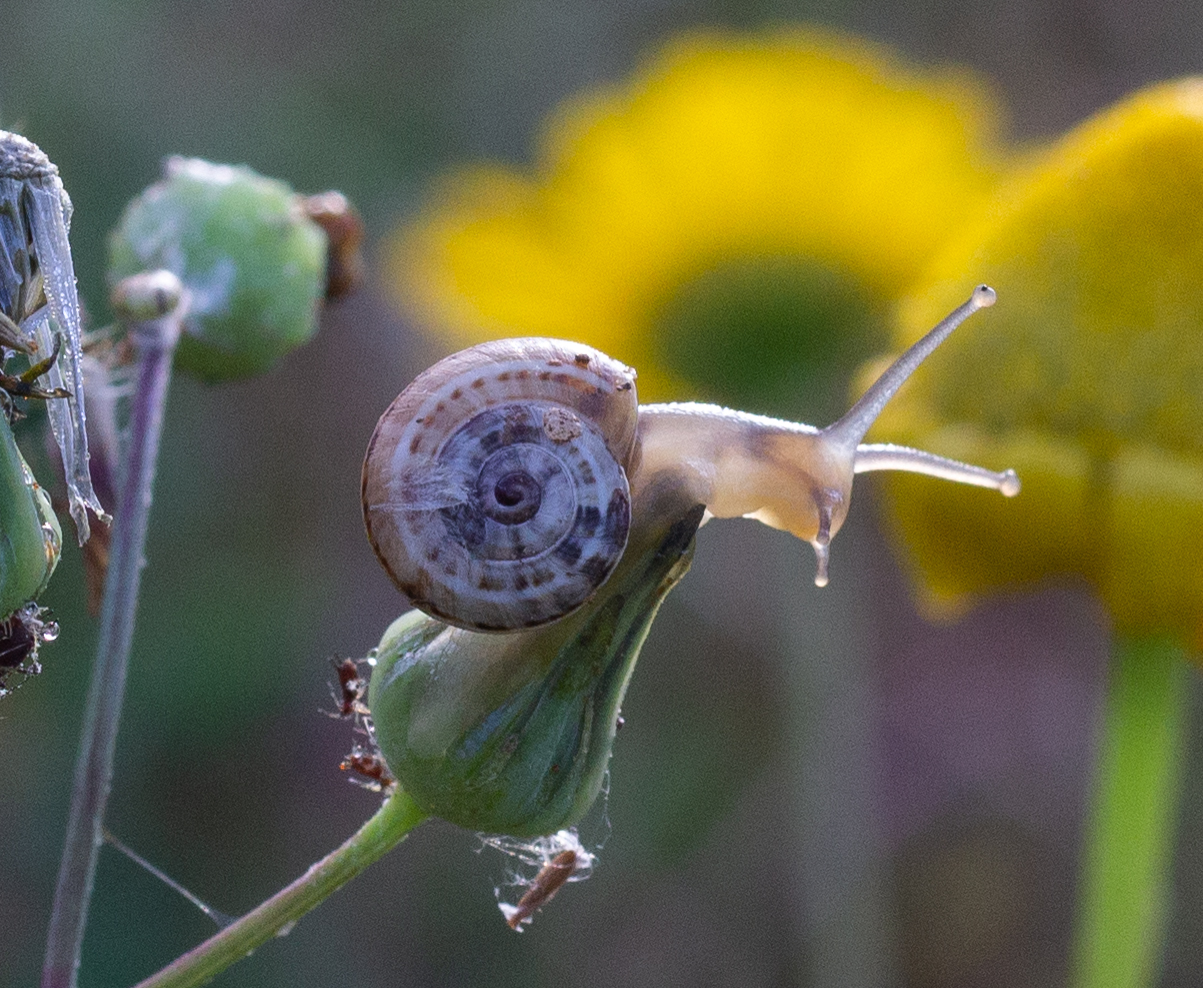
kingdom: Animalia
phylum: Mollusca
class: Gastropoda
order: Stylommatophora
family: Helicidae
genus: Theba
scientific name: Theba pisana
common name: White snail
